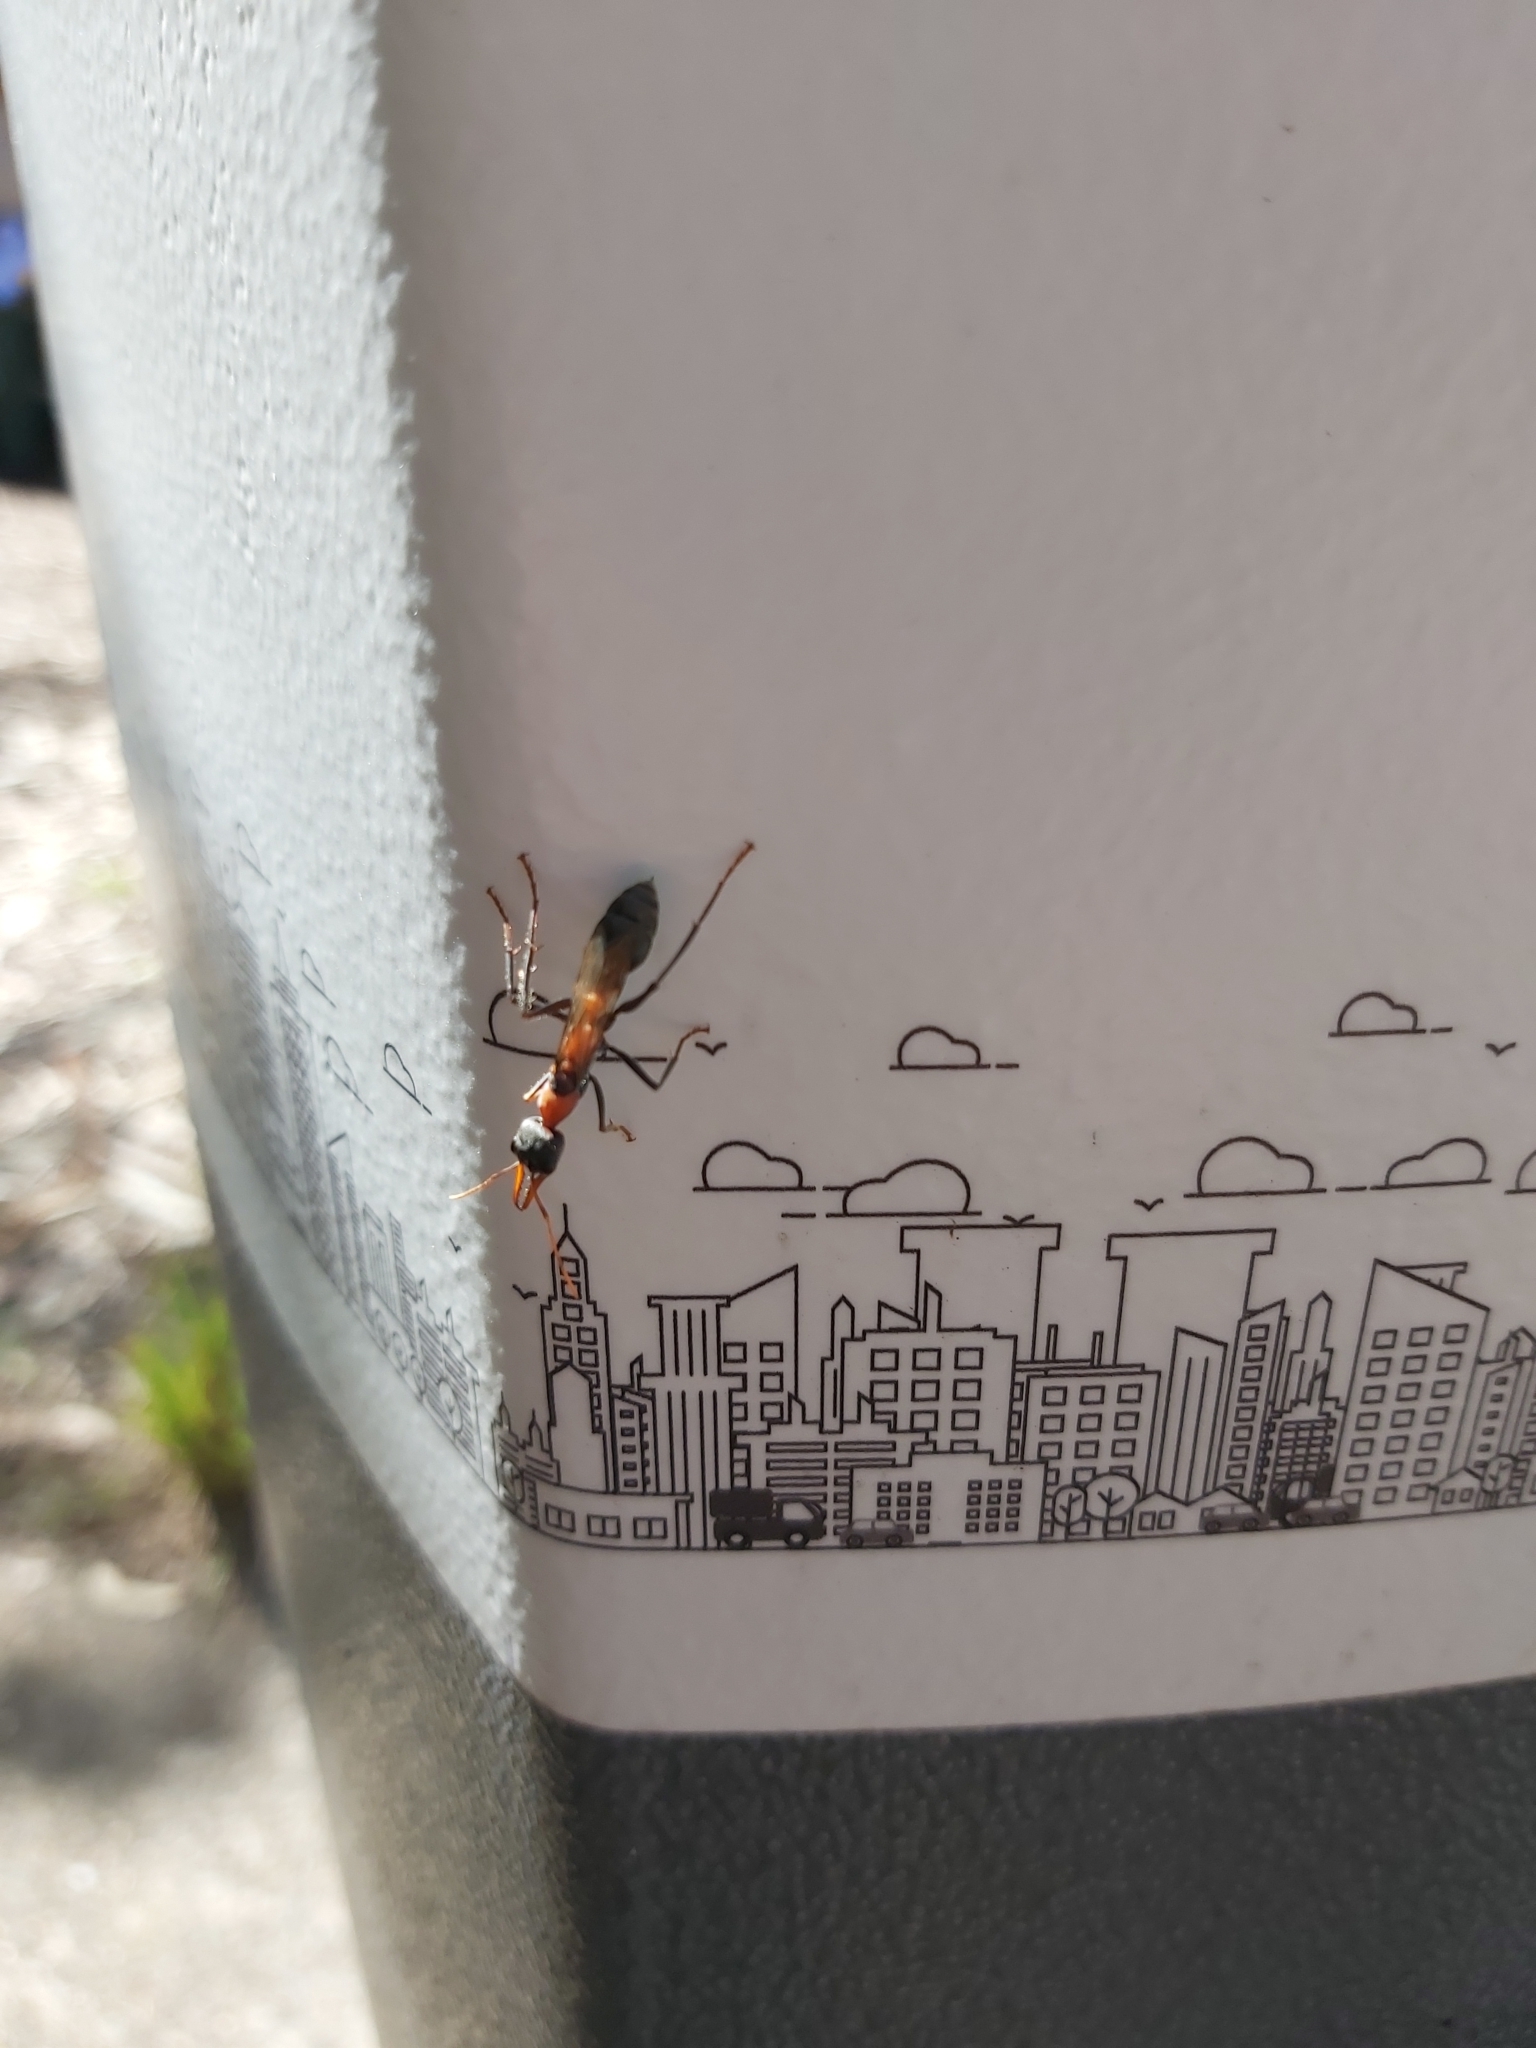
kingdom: Animalia
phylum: Arthropoda
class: Insecta
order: Hymenoptera
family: Formicidae
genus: Myrmecia
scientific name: Myrmecia nigrocincta
